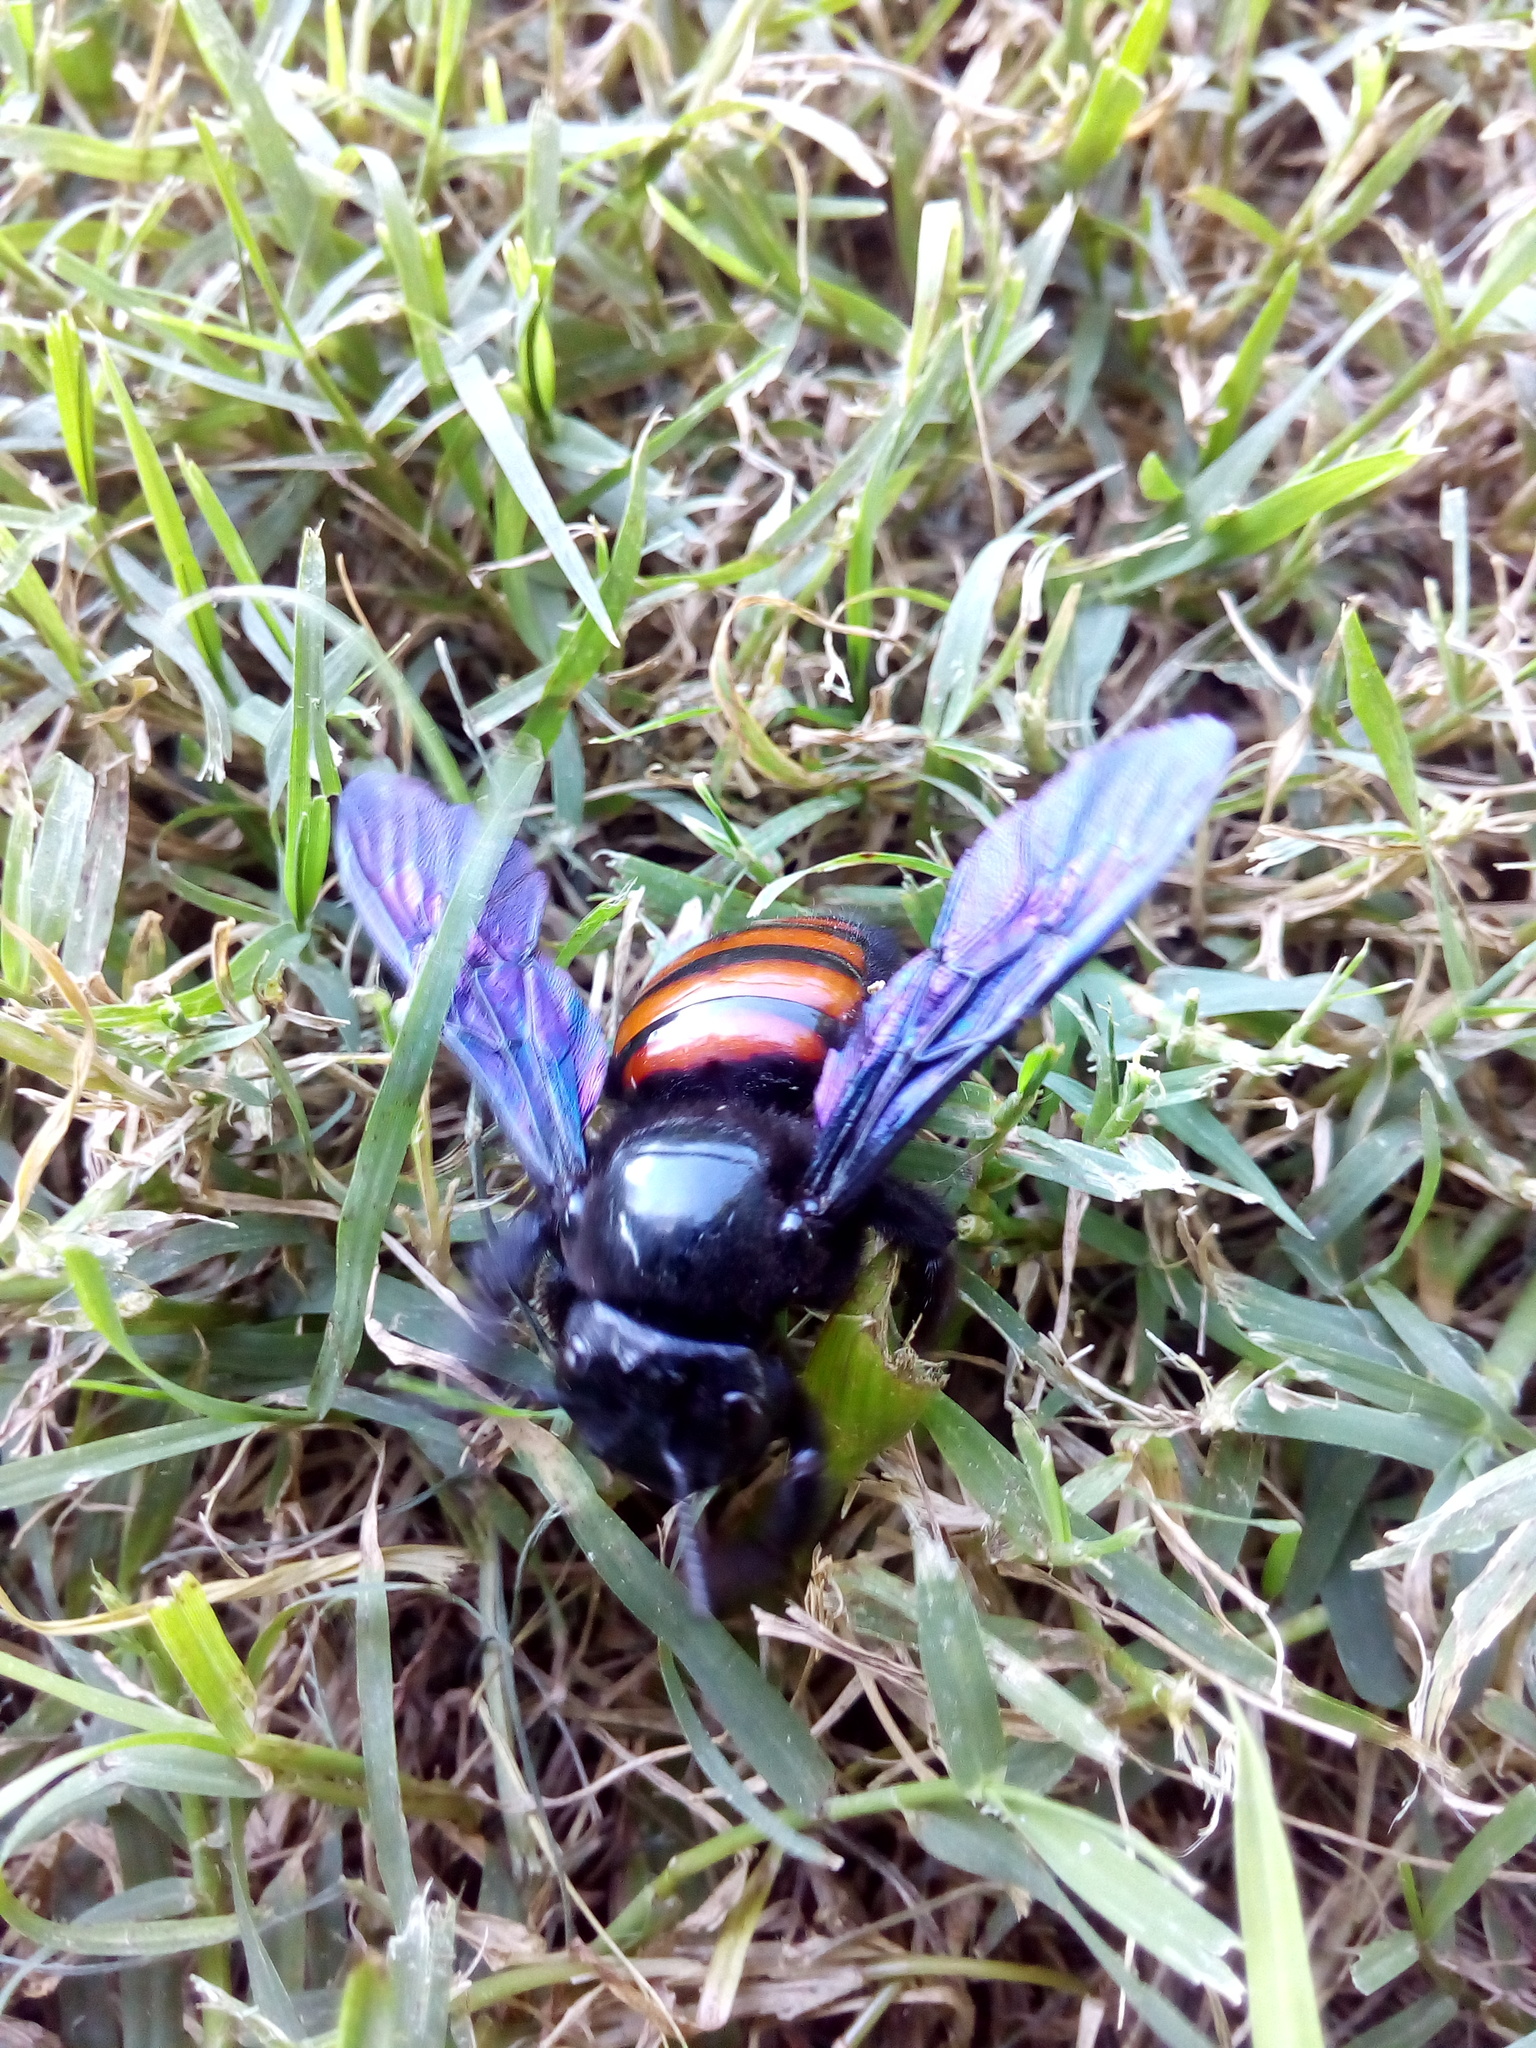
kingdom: Animalia
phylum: Arthropoda
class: Insecta
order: Hymenoptera
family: Apidae
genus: Xylocopa
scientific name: Xylocopa frontalis
